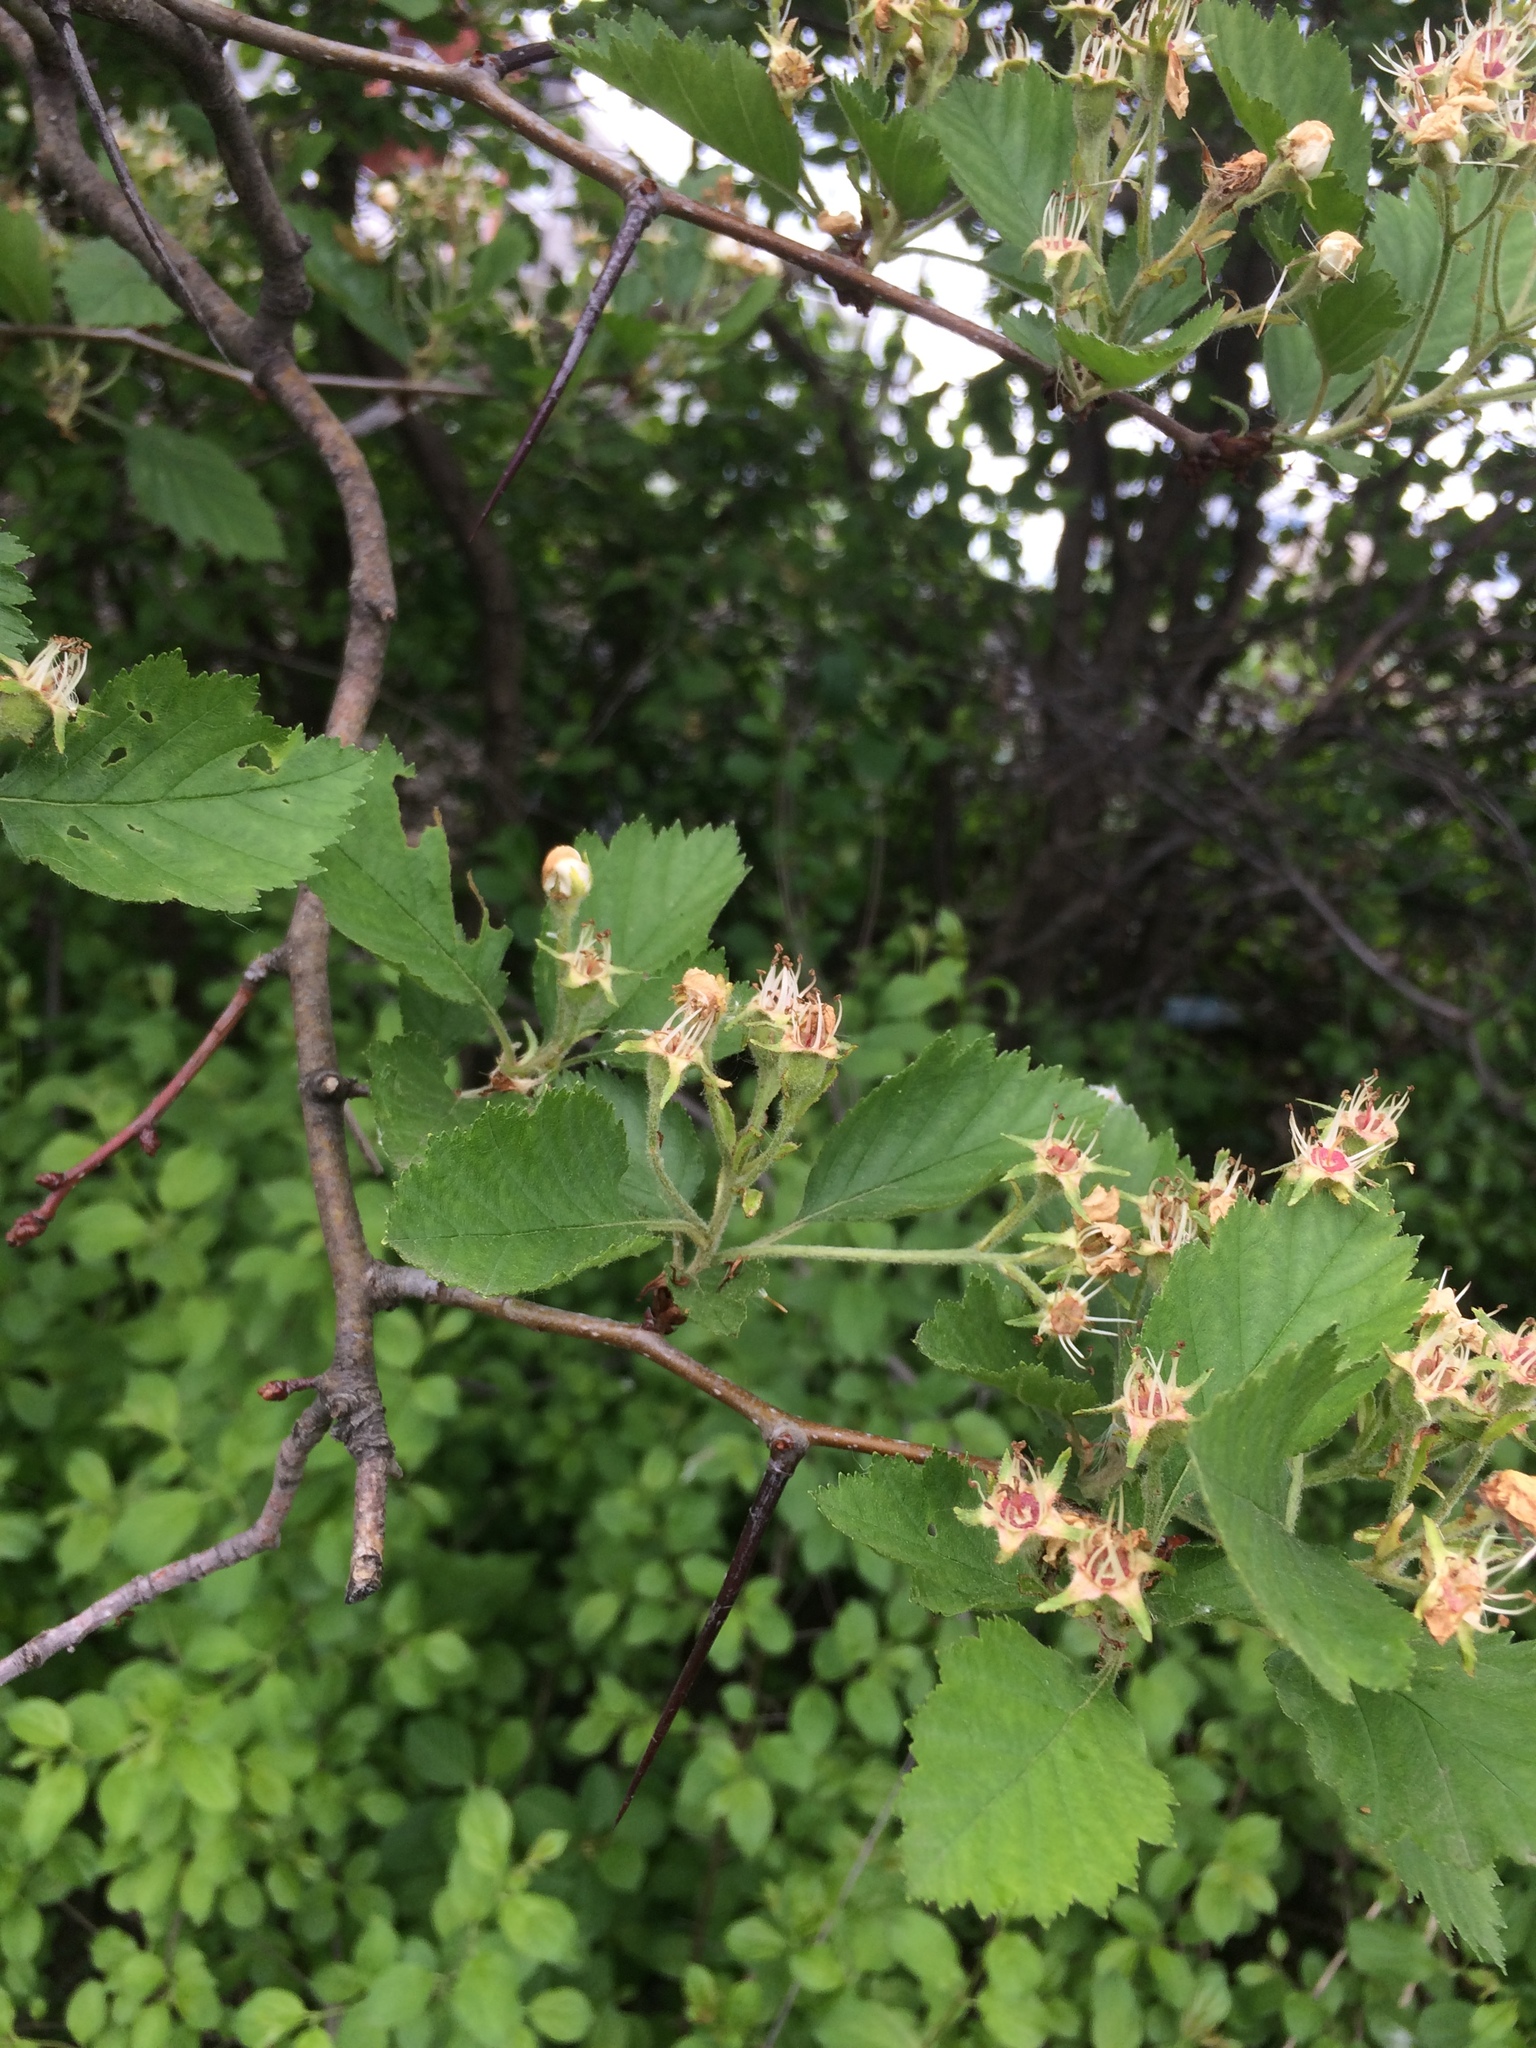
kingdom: Plantae
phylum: Tracheophyta
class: Magnoliopsida
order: Rosales
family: Rosaceae
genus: Crataegus
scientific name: Crataegus submollis
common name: Hairy cockspurthorn
